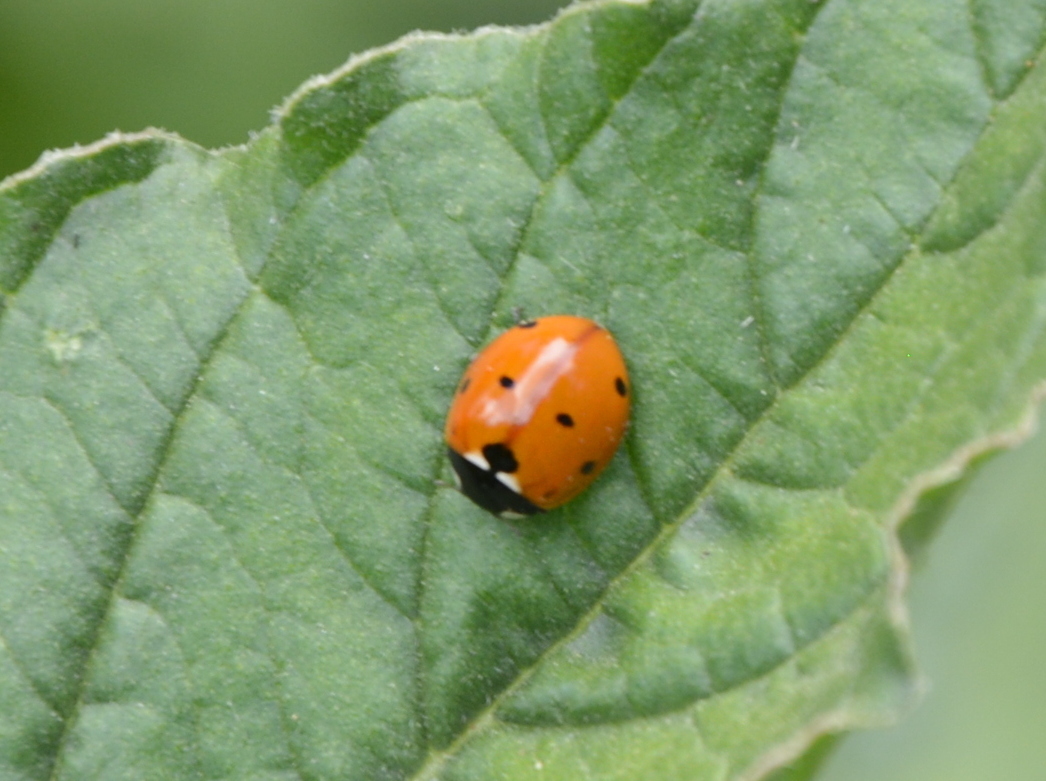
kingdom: Animalia
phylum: Arthropoda
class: Insecta
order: Coleoptera
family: Coccinellidae
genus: Coccinella
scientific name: Coccinella septempunctata
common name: Sevenspotted lady beetle
